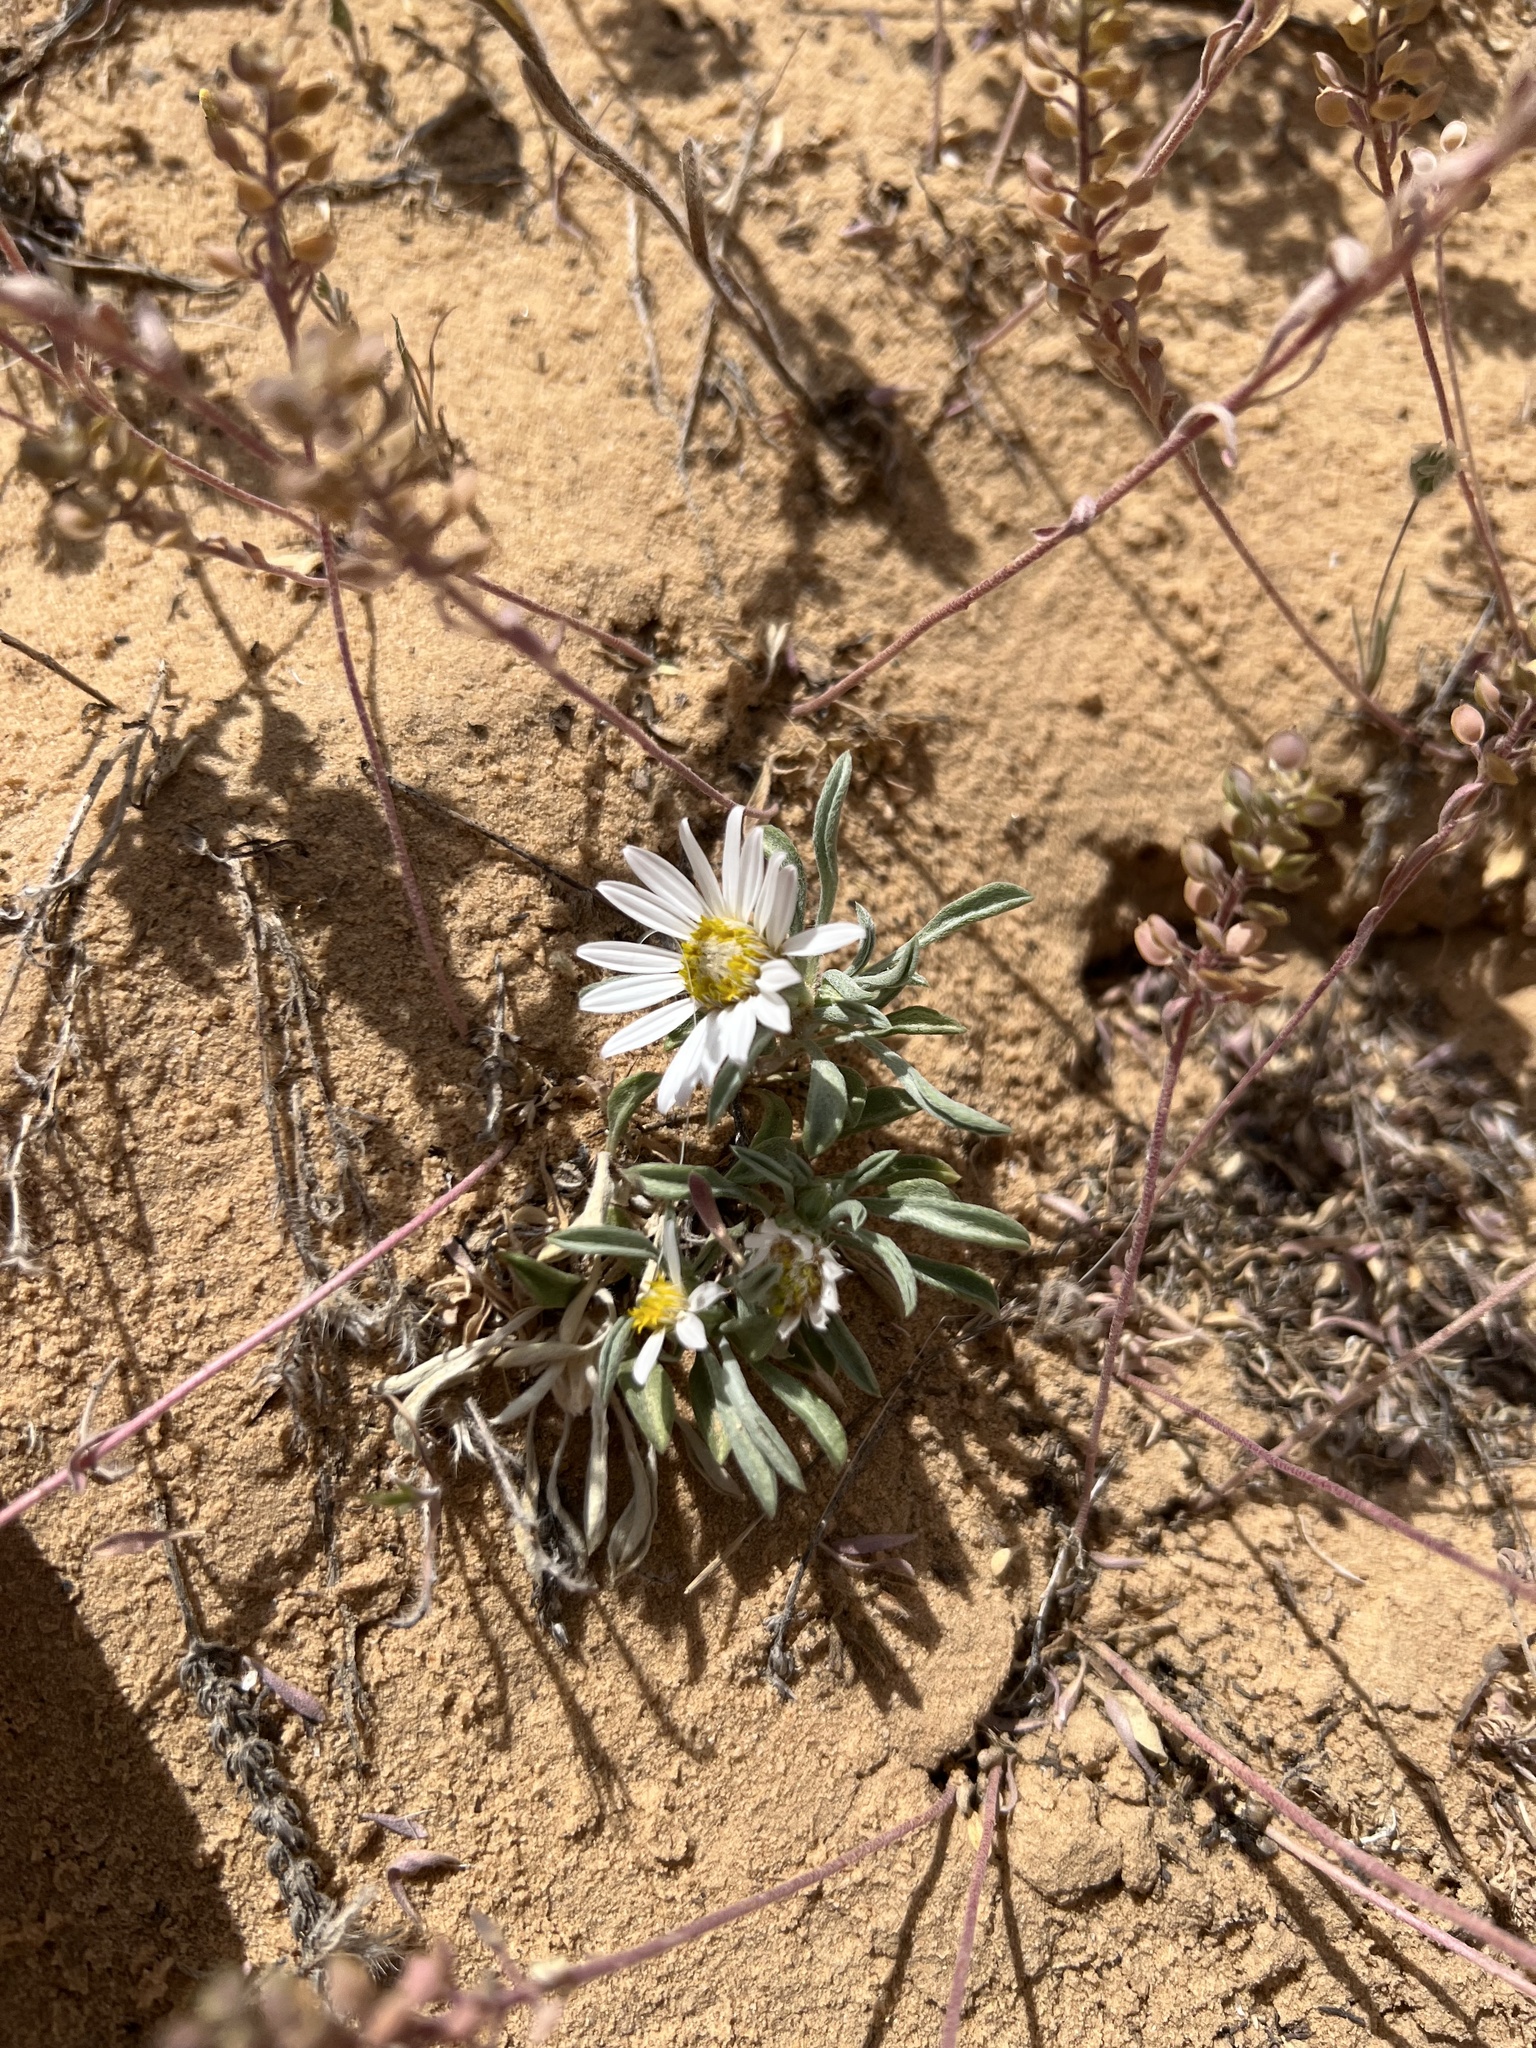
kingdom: Plantae
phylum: Tracheophyta
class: Magnoliopsida
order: Asterales
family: Asteraceae
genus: Townsendia
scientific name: Townsendia incana
